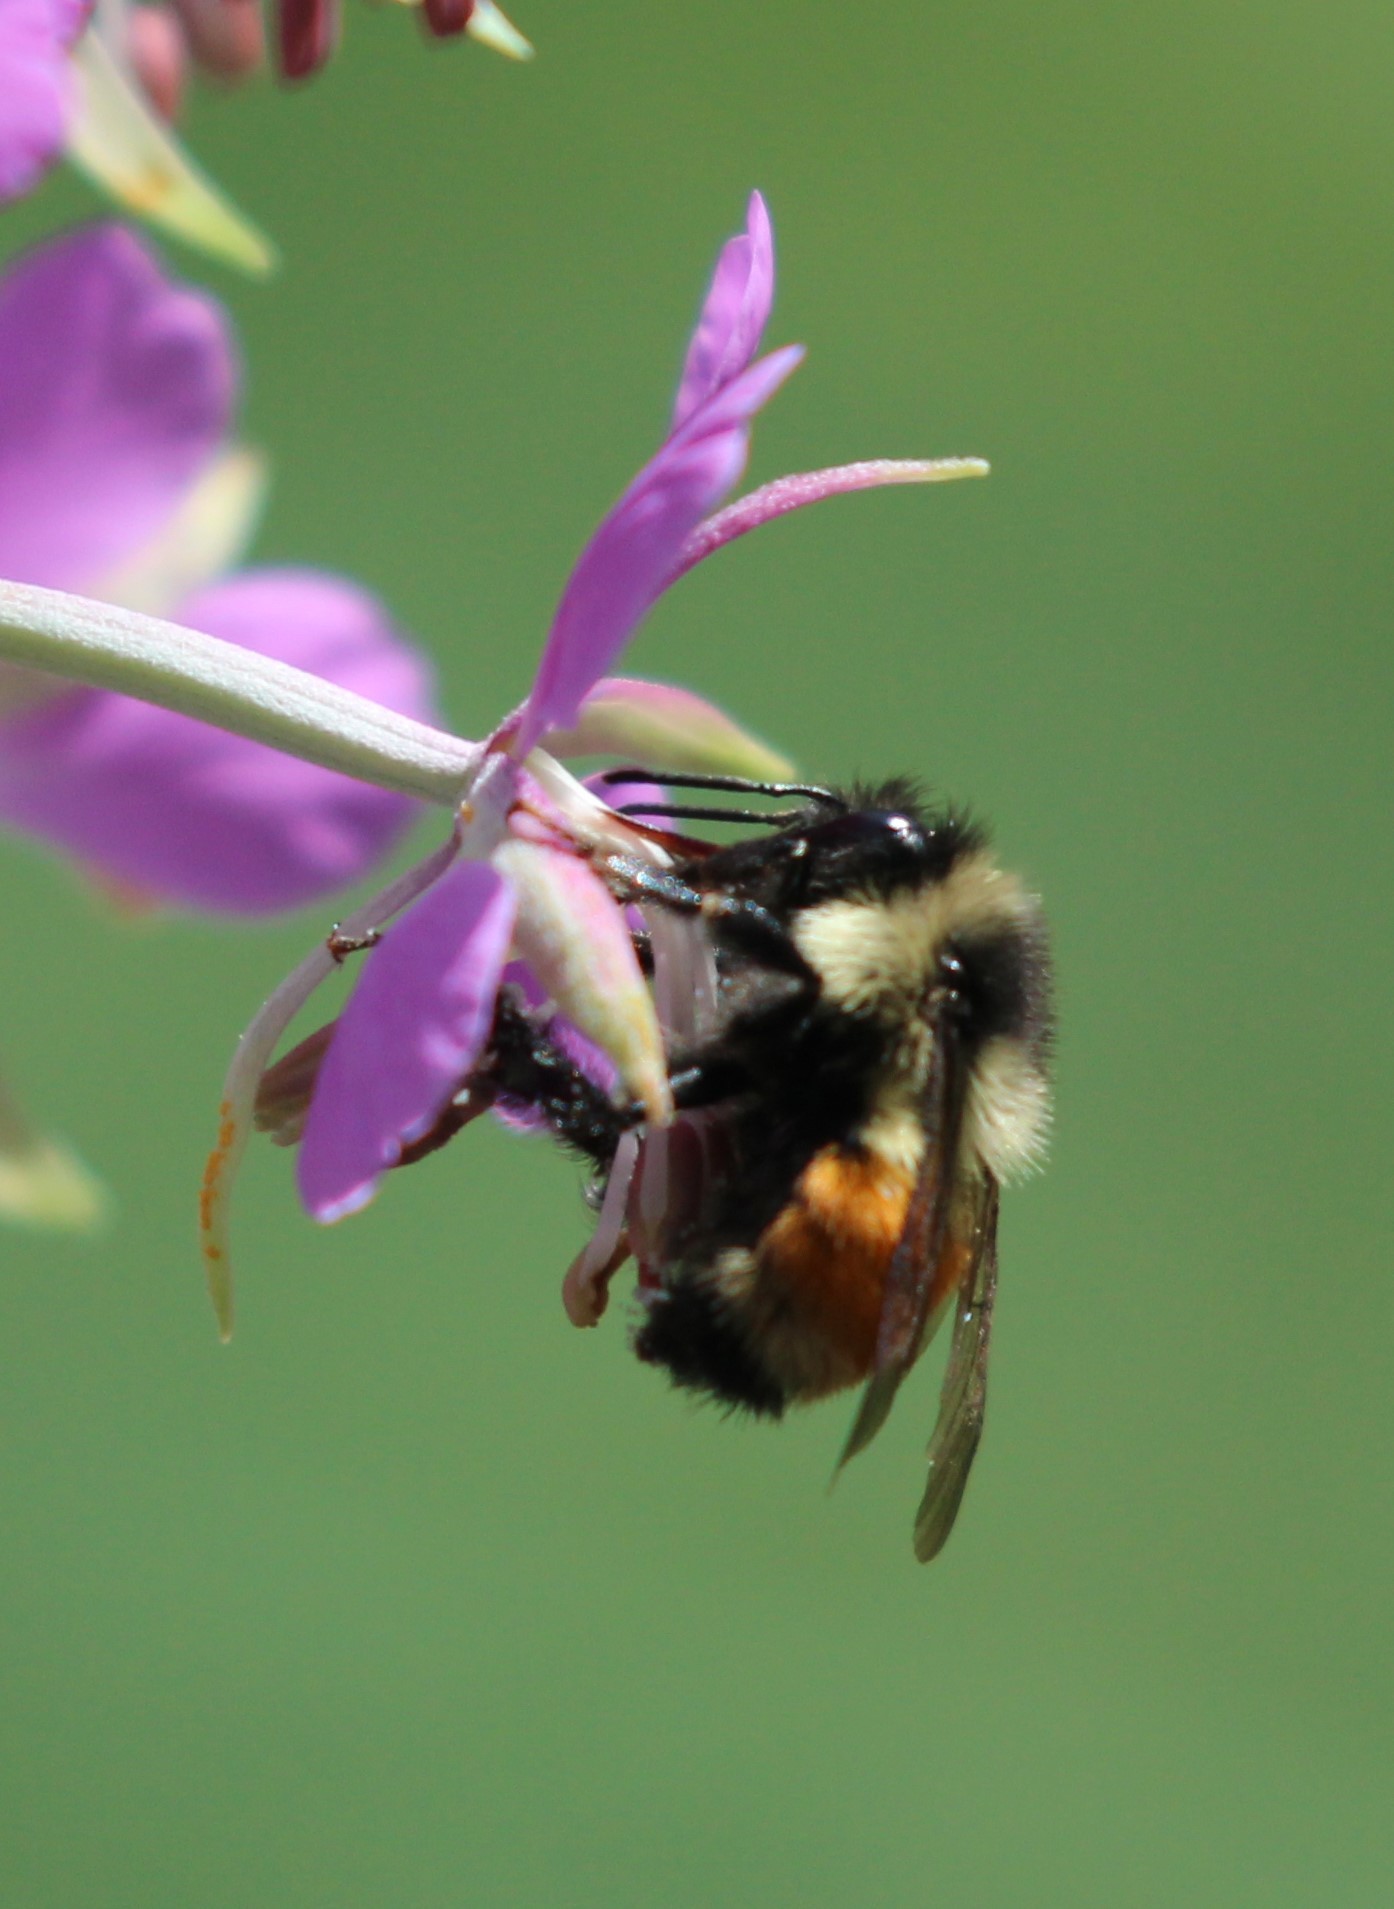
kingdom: Animalia
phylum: Arthropoda
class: Insecta
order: Hymenoptera
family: Apidae
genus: Bombus
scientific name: Bombus ternarius
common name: Tri-colored bumble bee
